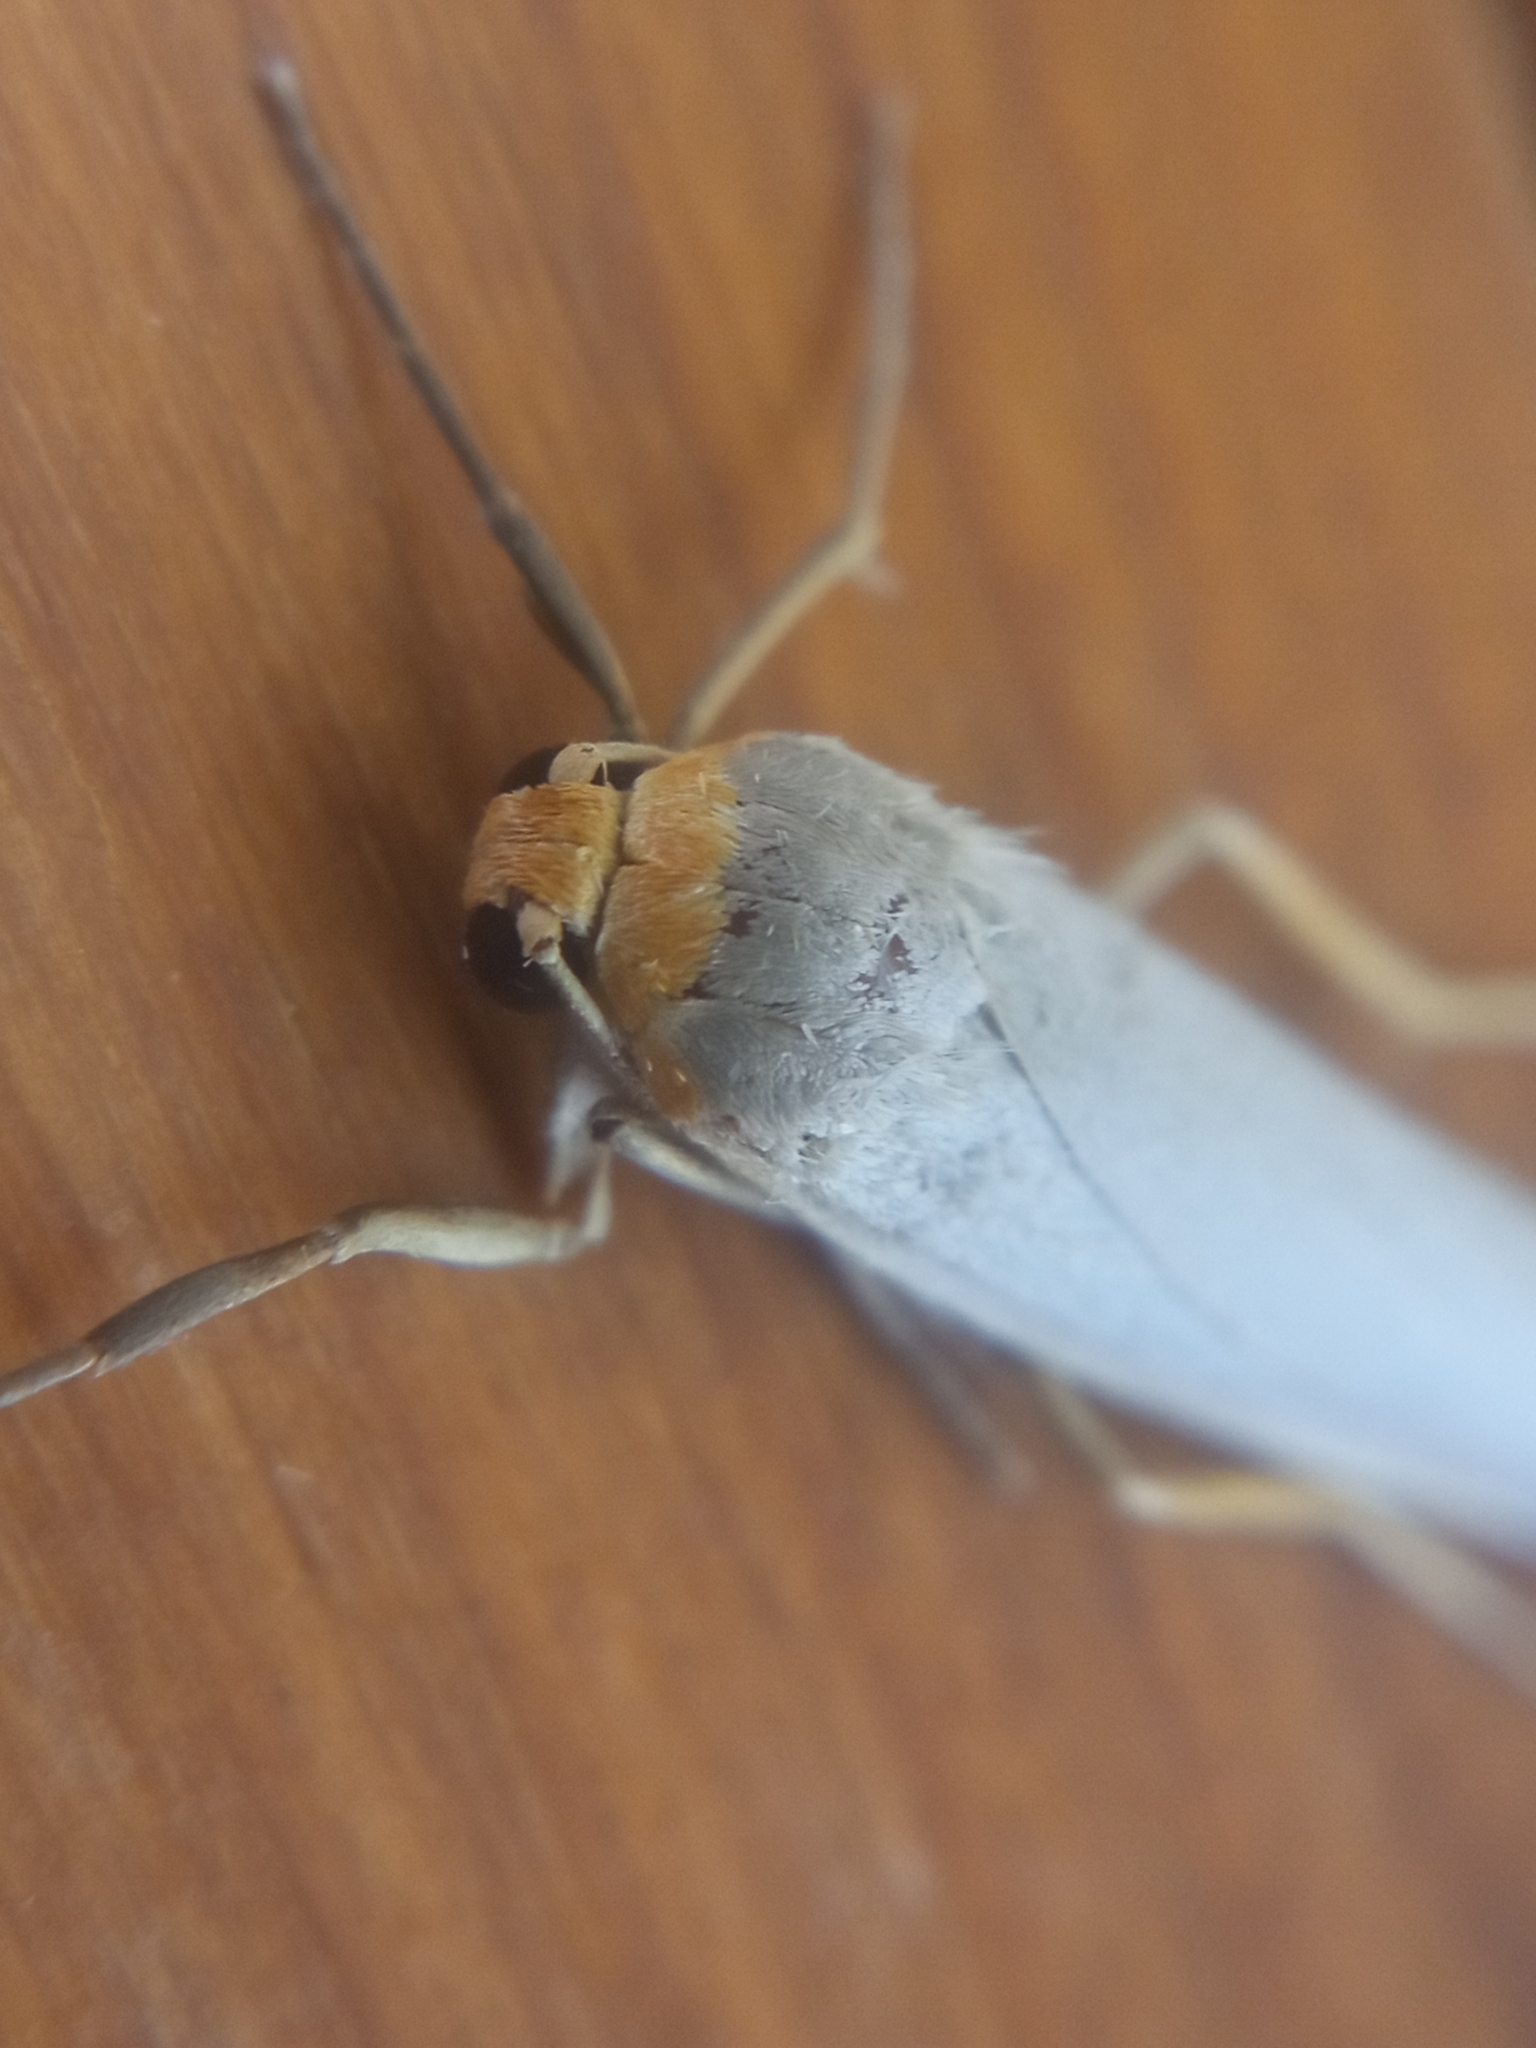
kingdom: Animalia
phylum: Arthropoda
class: Insecta
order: Lepidoptera
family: Erebidae
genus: Eilema
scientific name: Eilema caniola
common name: Hoary footman
